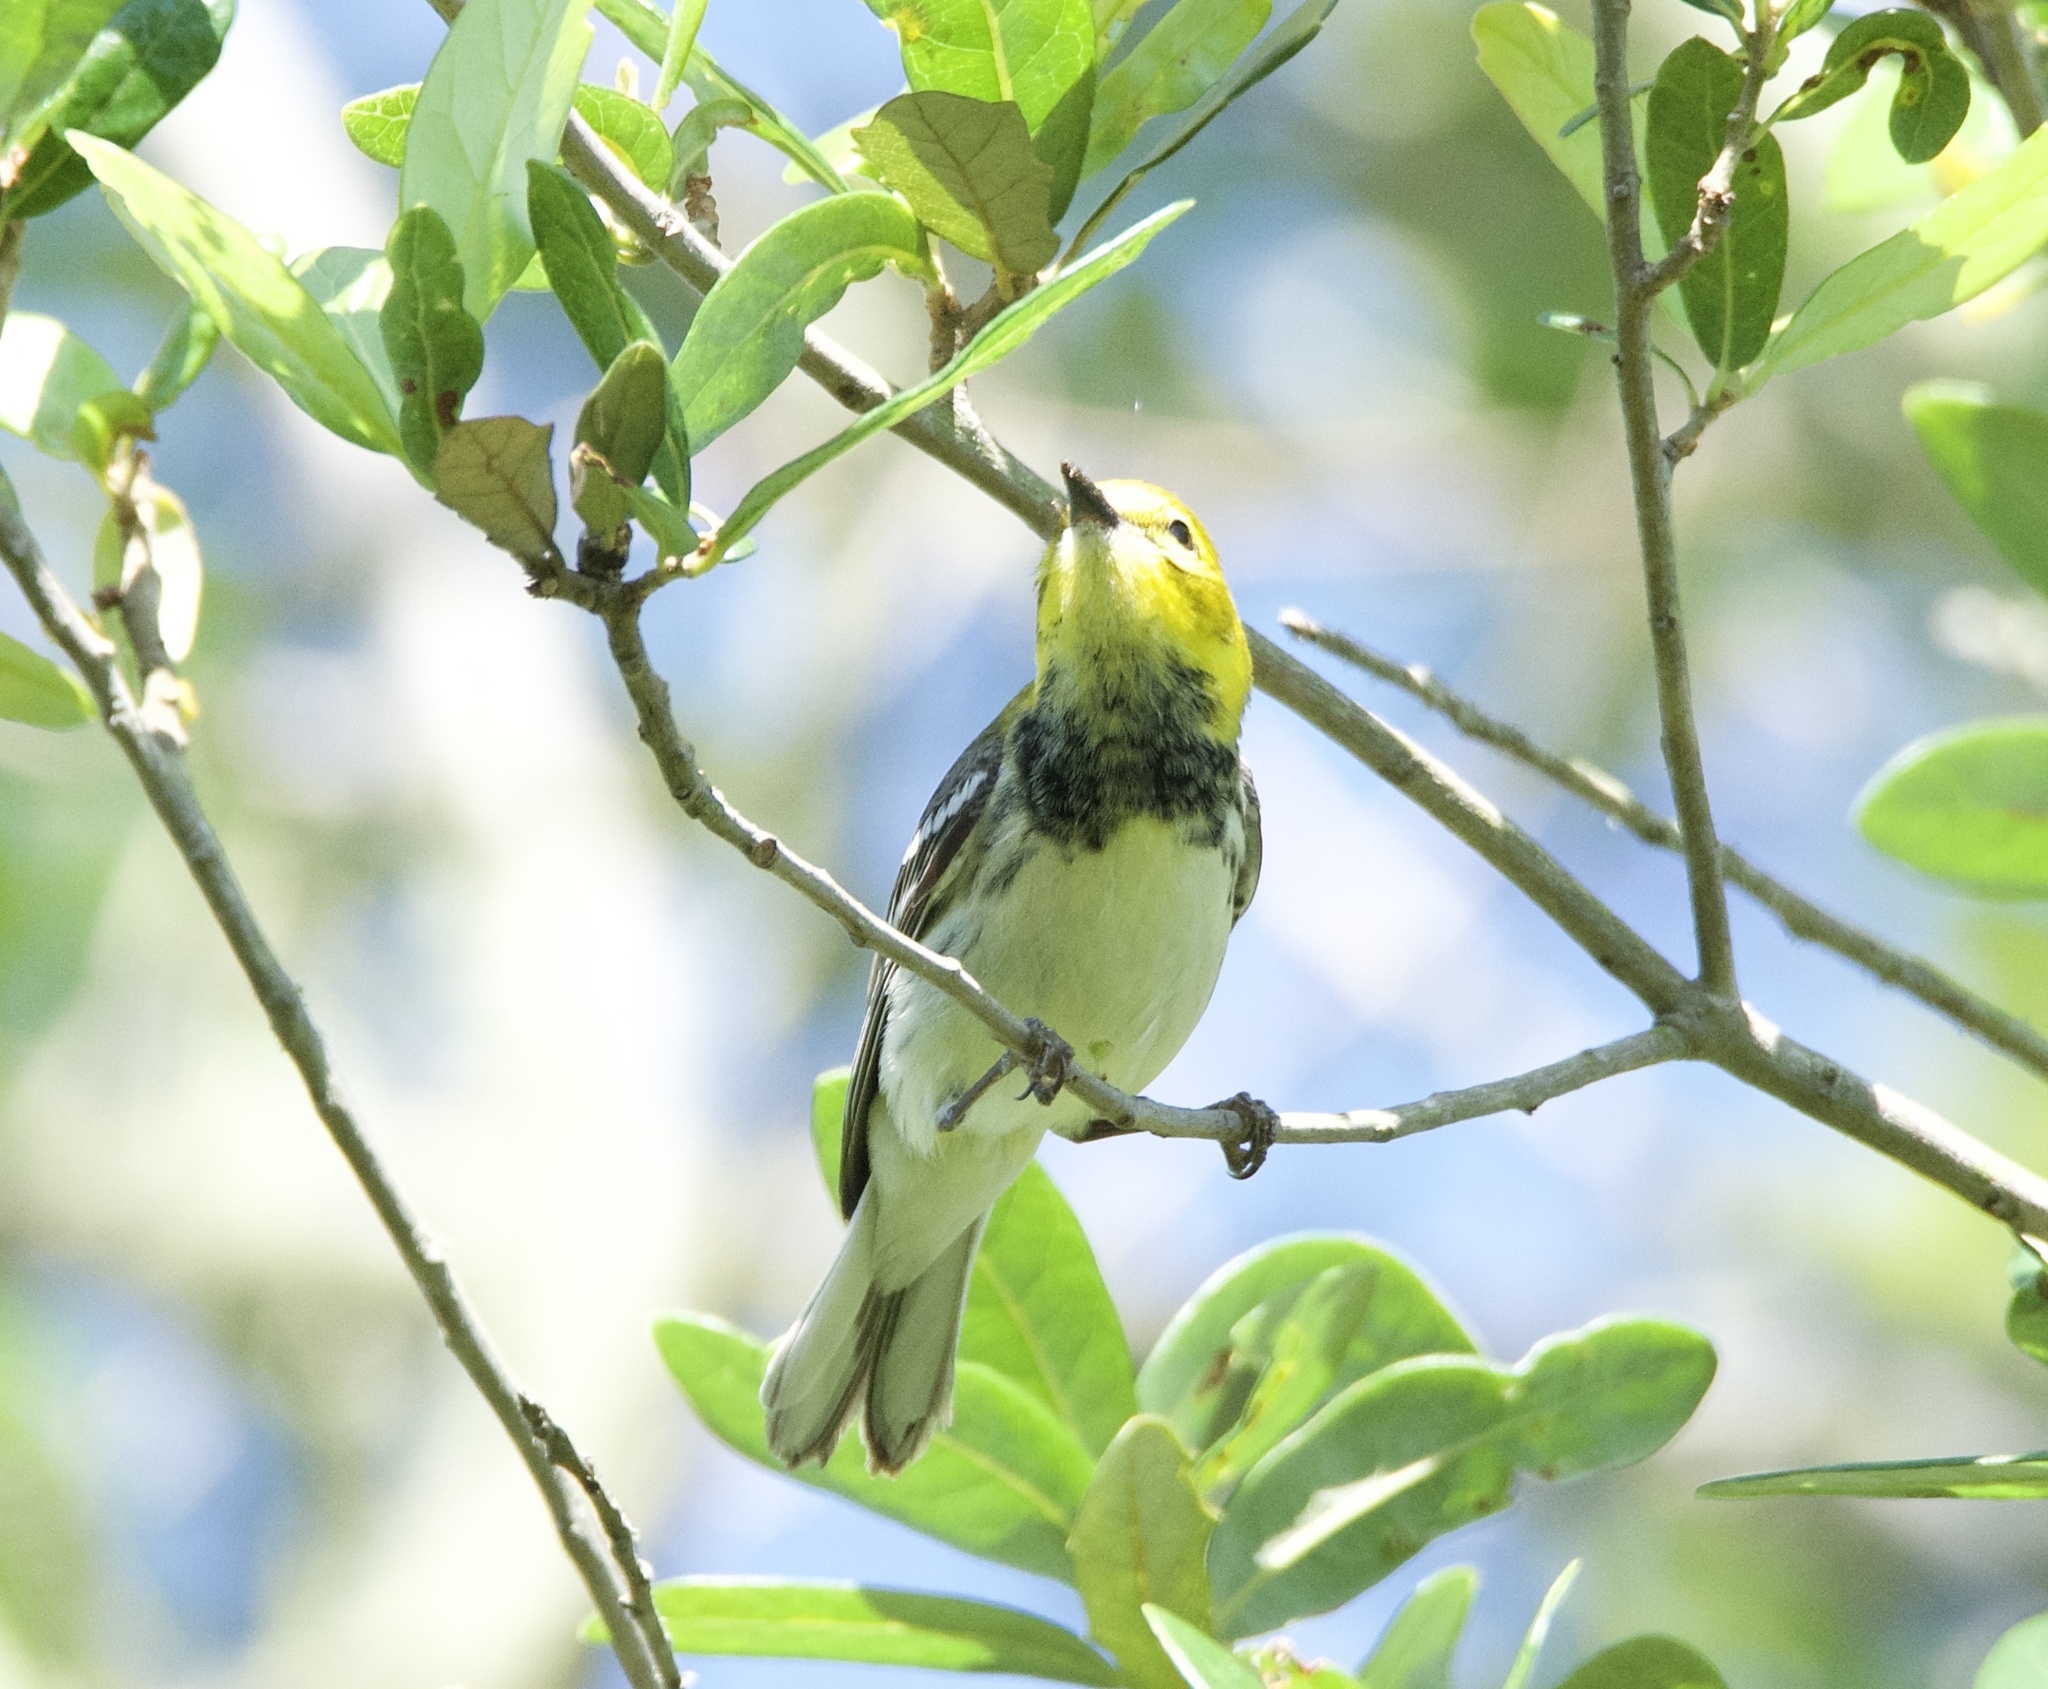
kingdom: Animalia
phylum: Chordata
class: Aves
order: Passeriformes
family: Parulidae
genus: Setophaga
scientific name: Setophaga virens
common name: Black-throated green warbler
